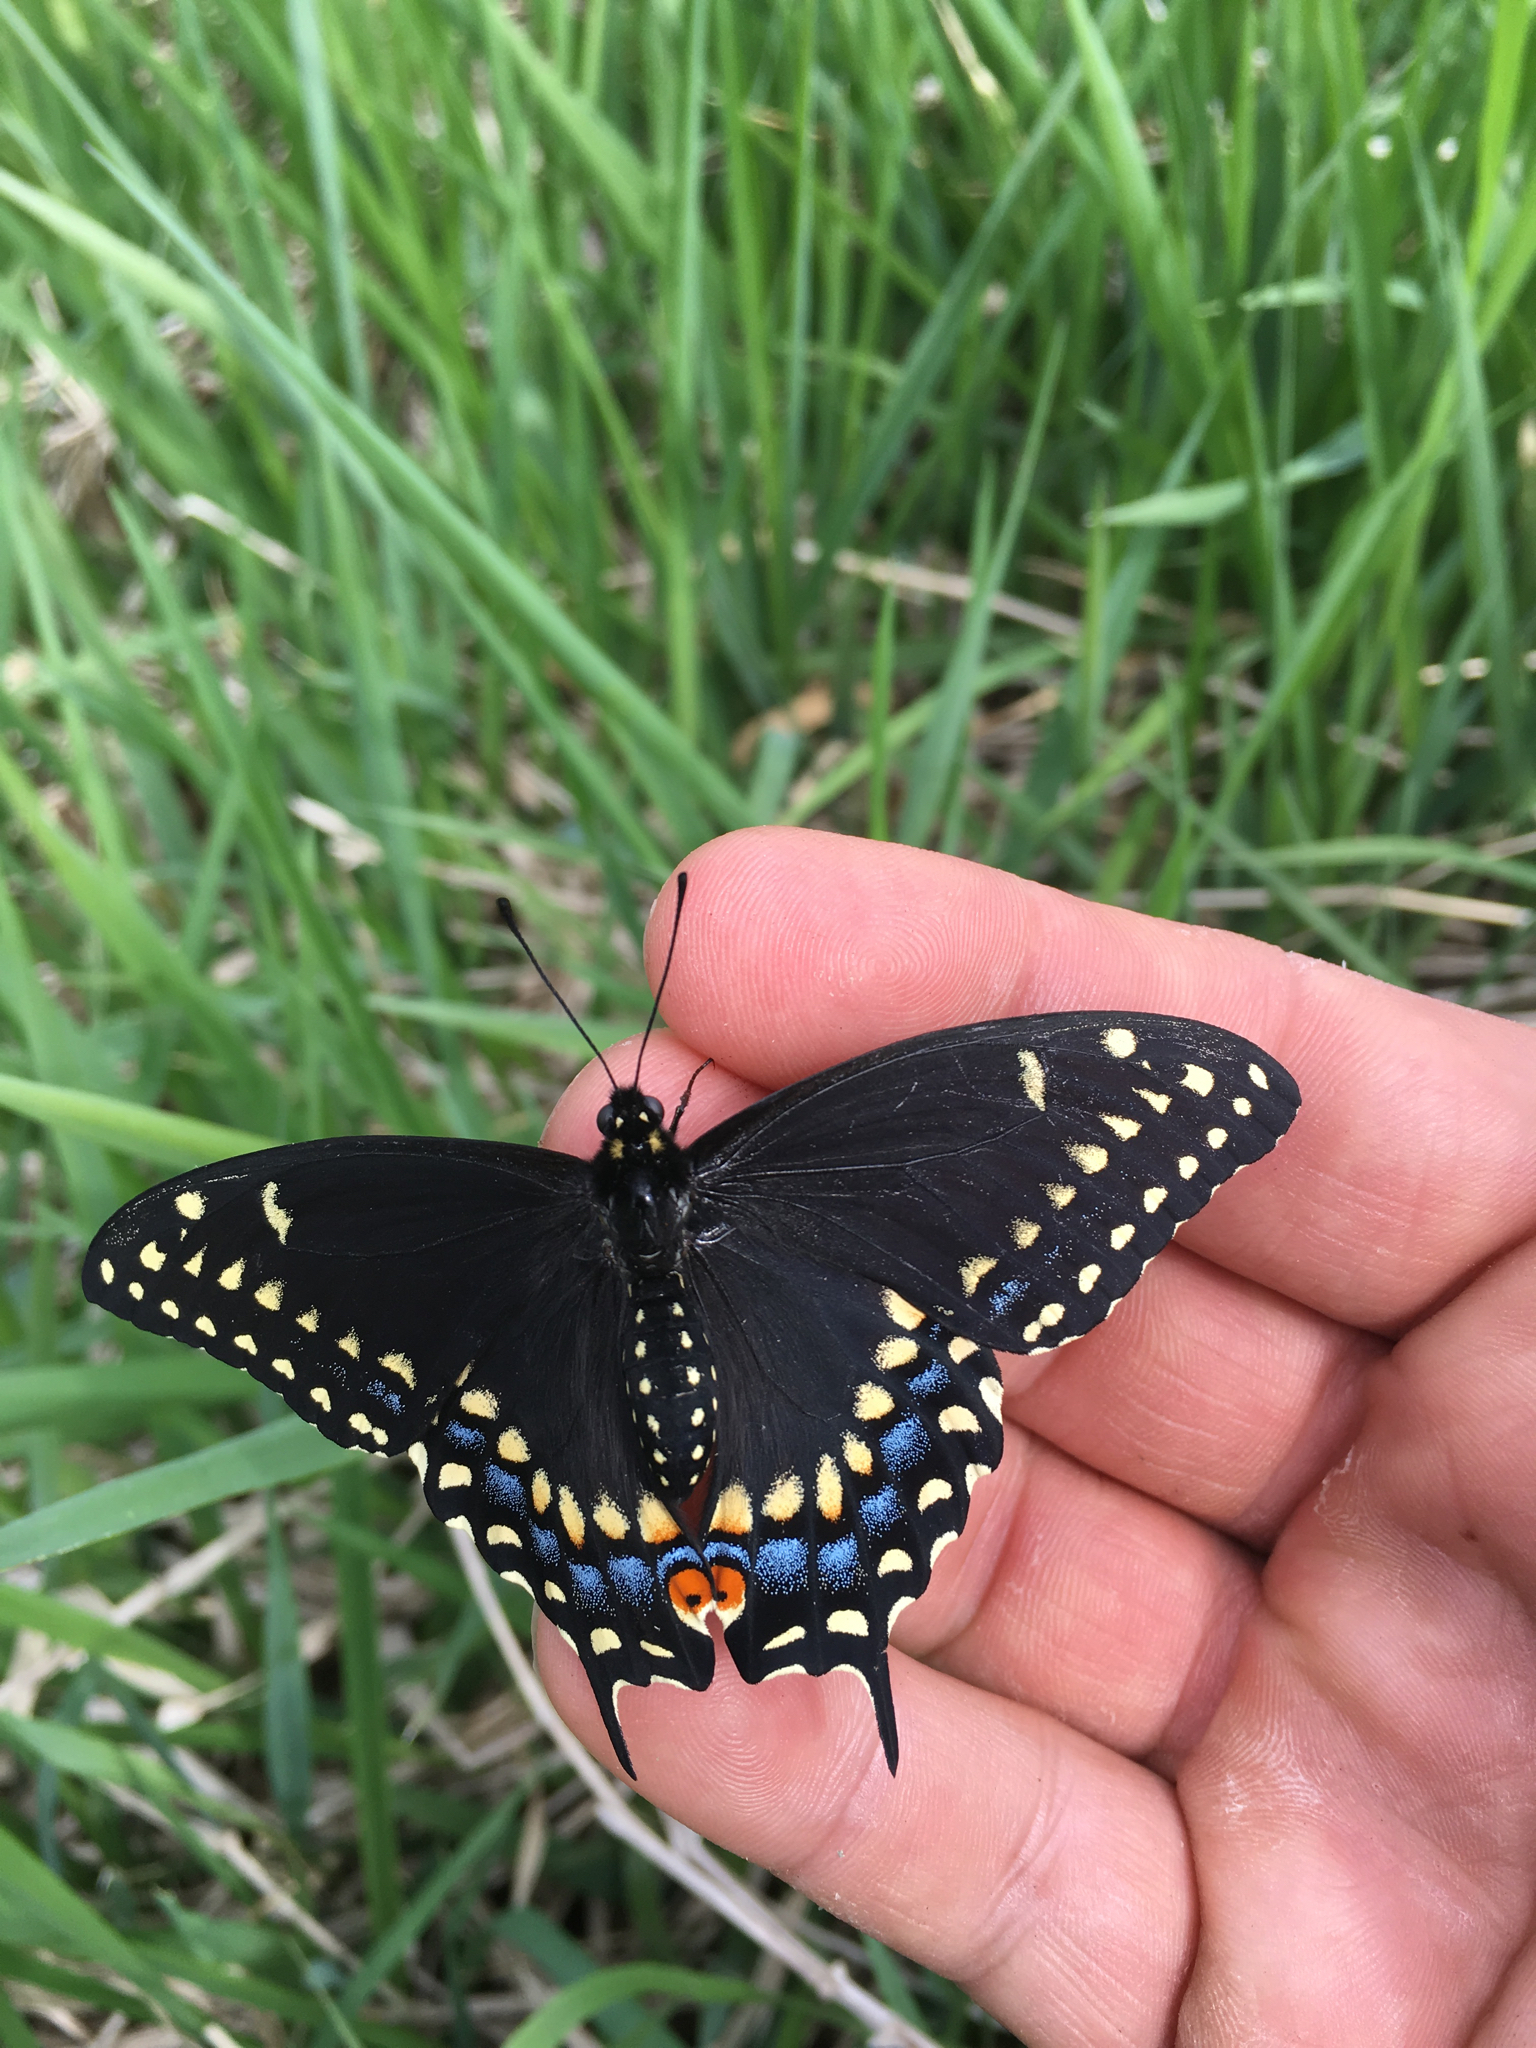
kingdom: Animalia
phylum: Arthropoda
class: Insecta
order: Lepidoptera
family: Papilionidae
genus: Papilio
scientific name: Papilio polyxenes
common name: Black swallowtail
